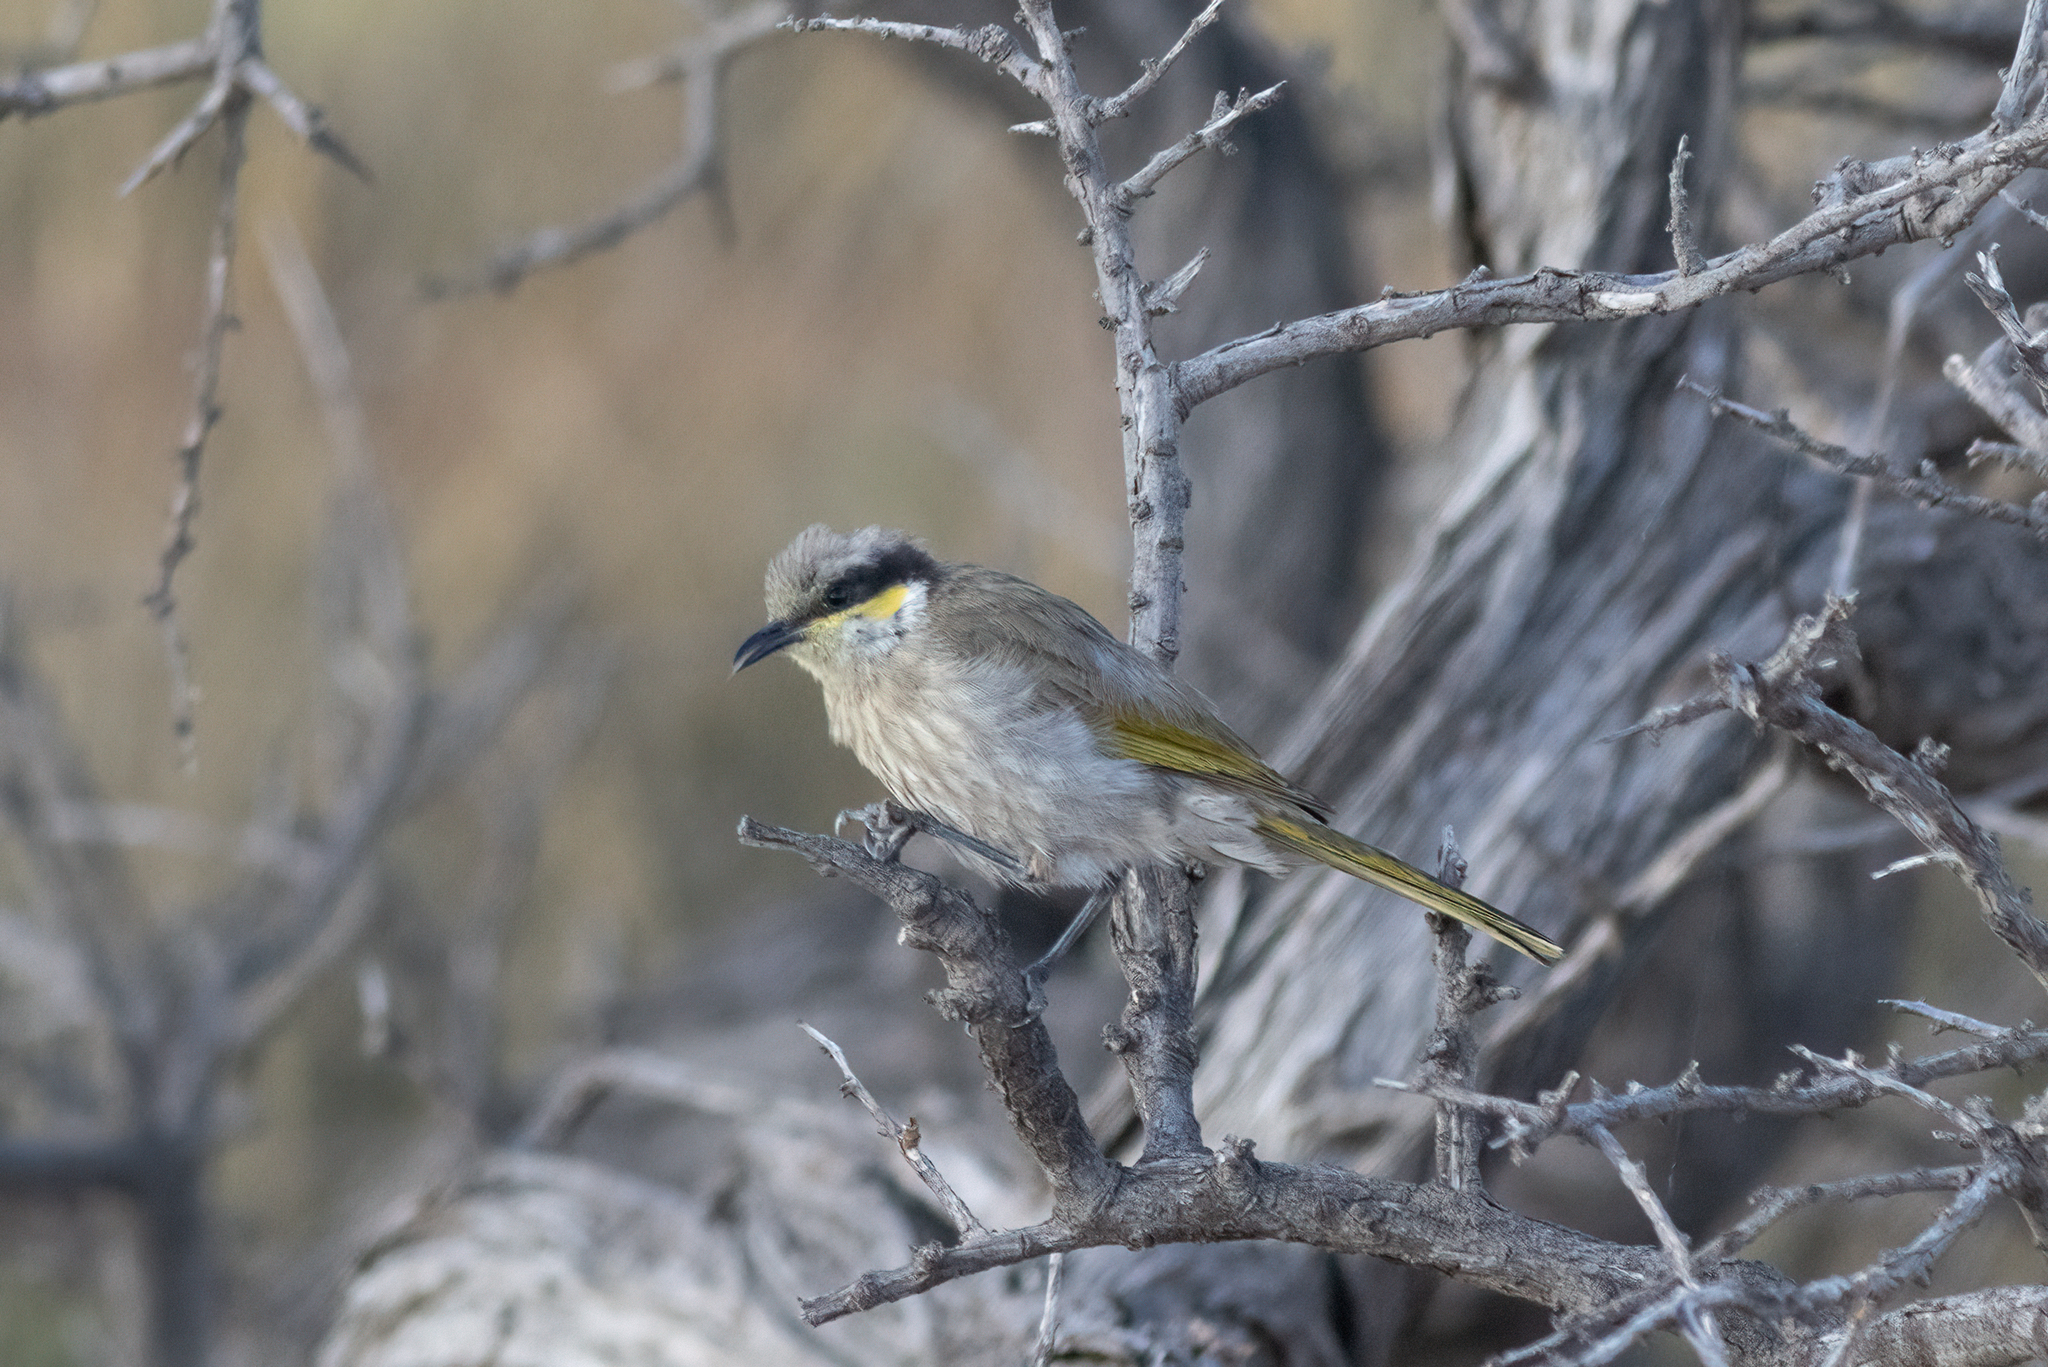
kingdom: Animalia
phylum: Chordata
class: Aves
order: Passeriformes
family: Meliphagidae
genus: Gavicalis
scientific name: Gavicalis virescens
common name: Singing honeyeater
